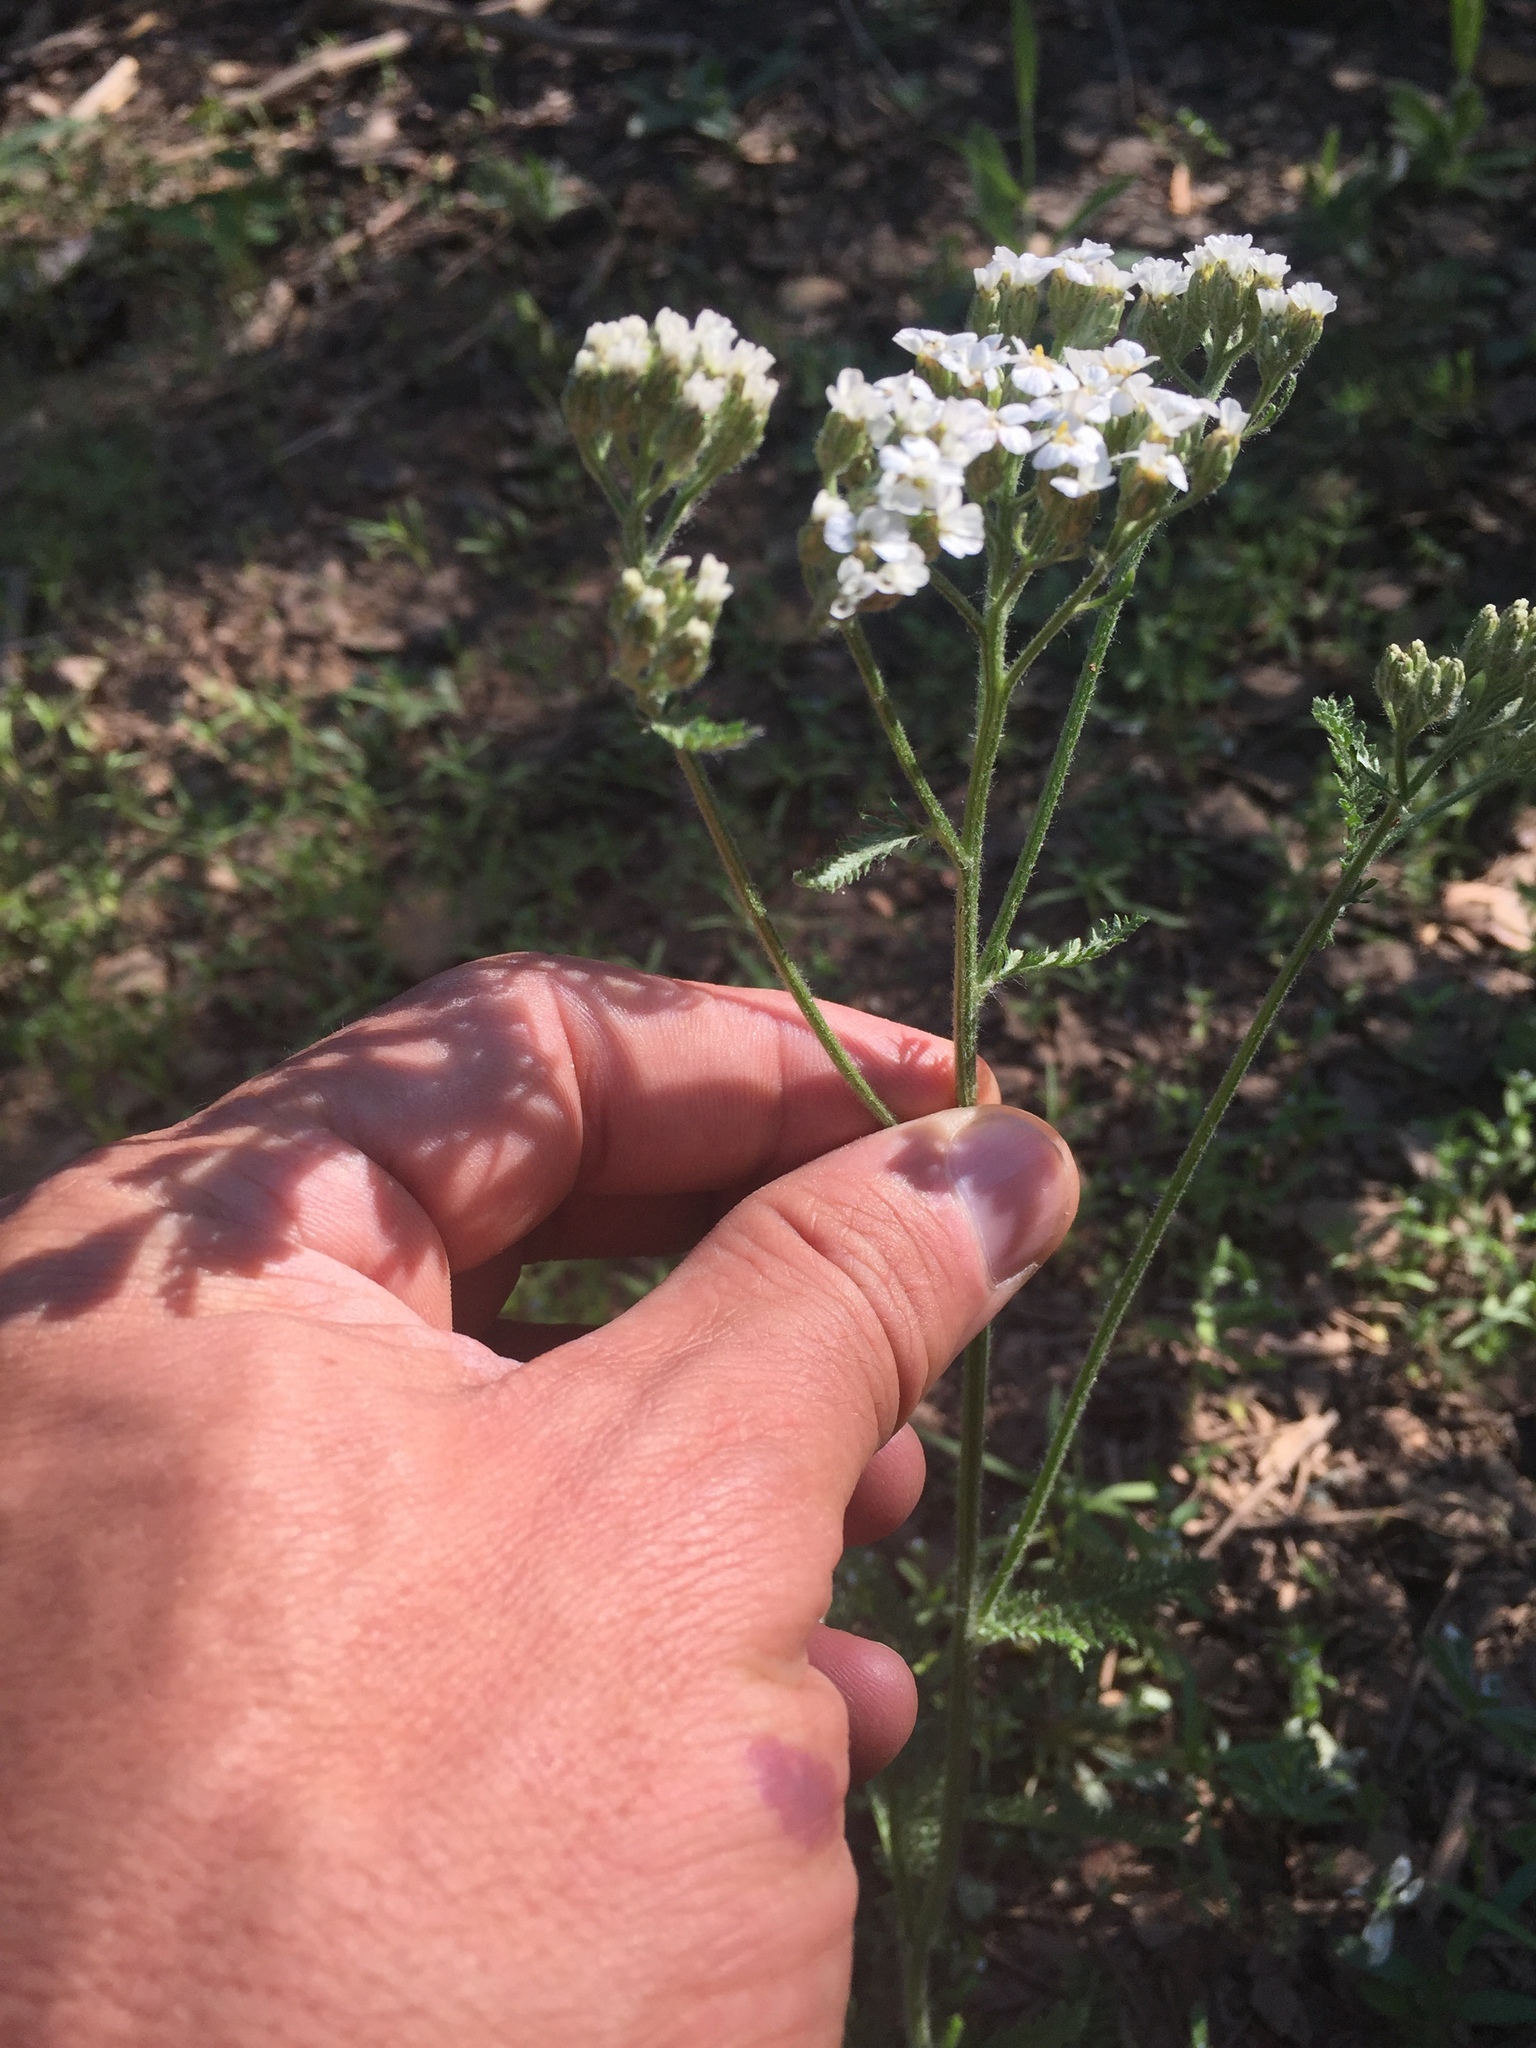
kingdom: Plantae
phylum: Tracheophyta
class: Magnoliopsida
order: Asterales
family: Asteraceae
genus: Achillea
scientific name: Achillea millefolium
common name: Yarrow
